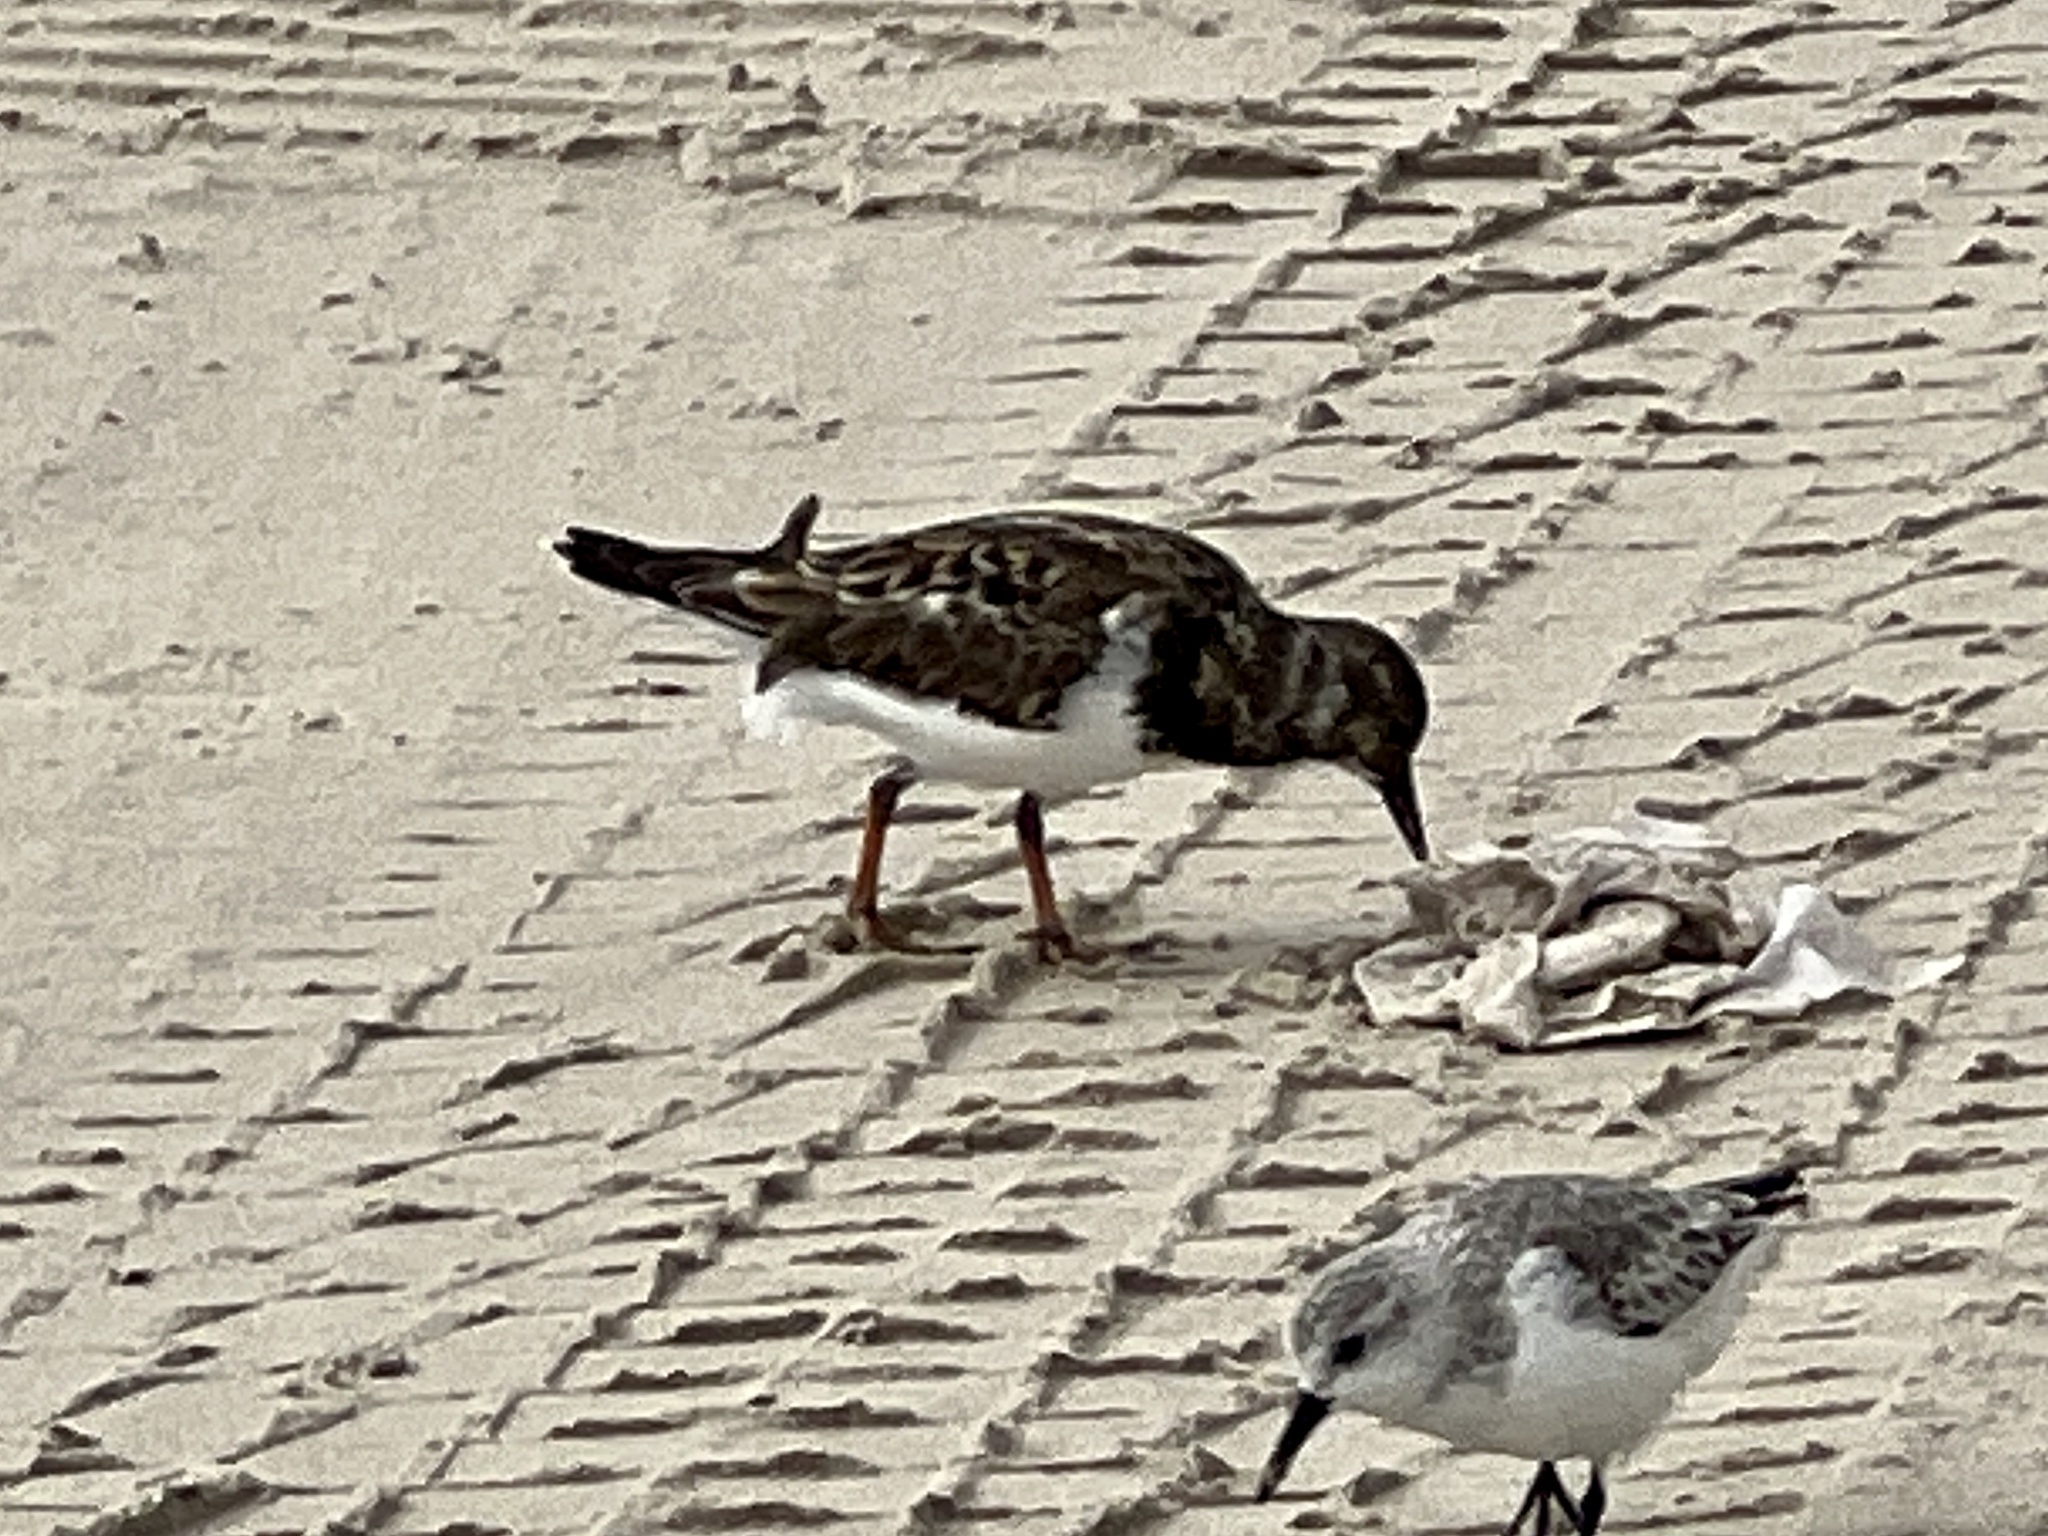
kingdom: Animalia
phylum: Chordata
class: Aves
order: Charadriiformes
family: Scolopacidae
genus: Arenaria
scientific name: Arenaria interpres
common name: Ruddy turnstone
